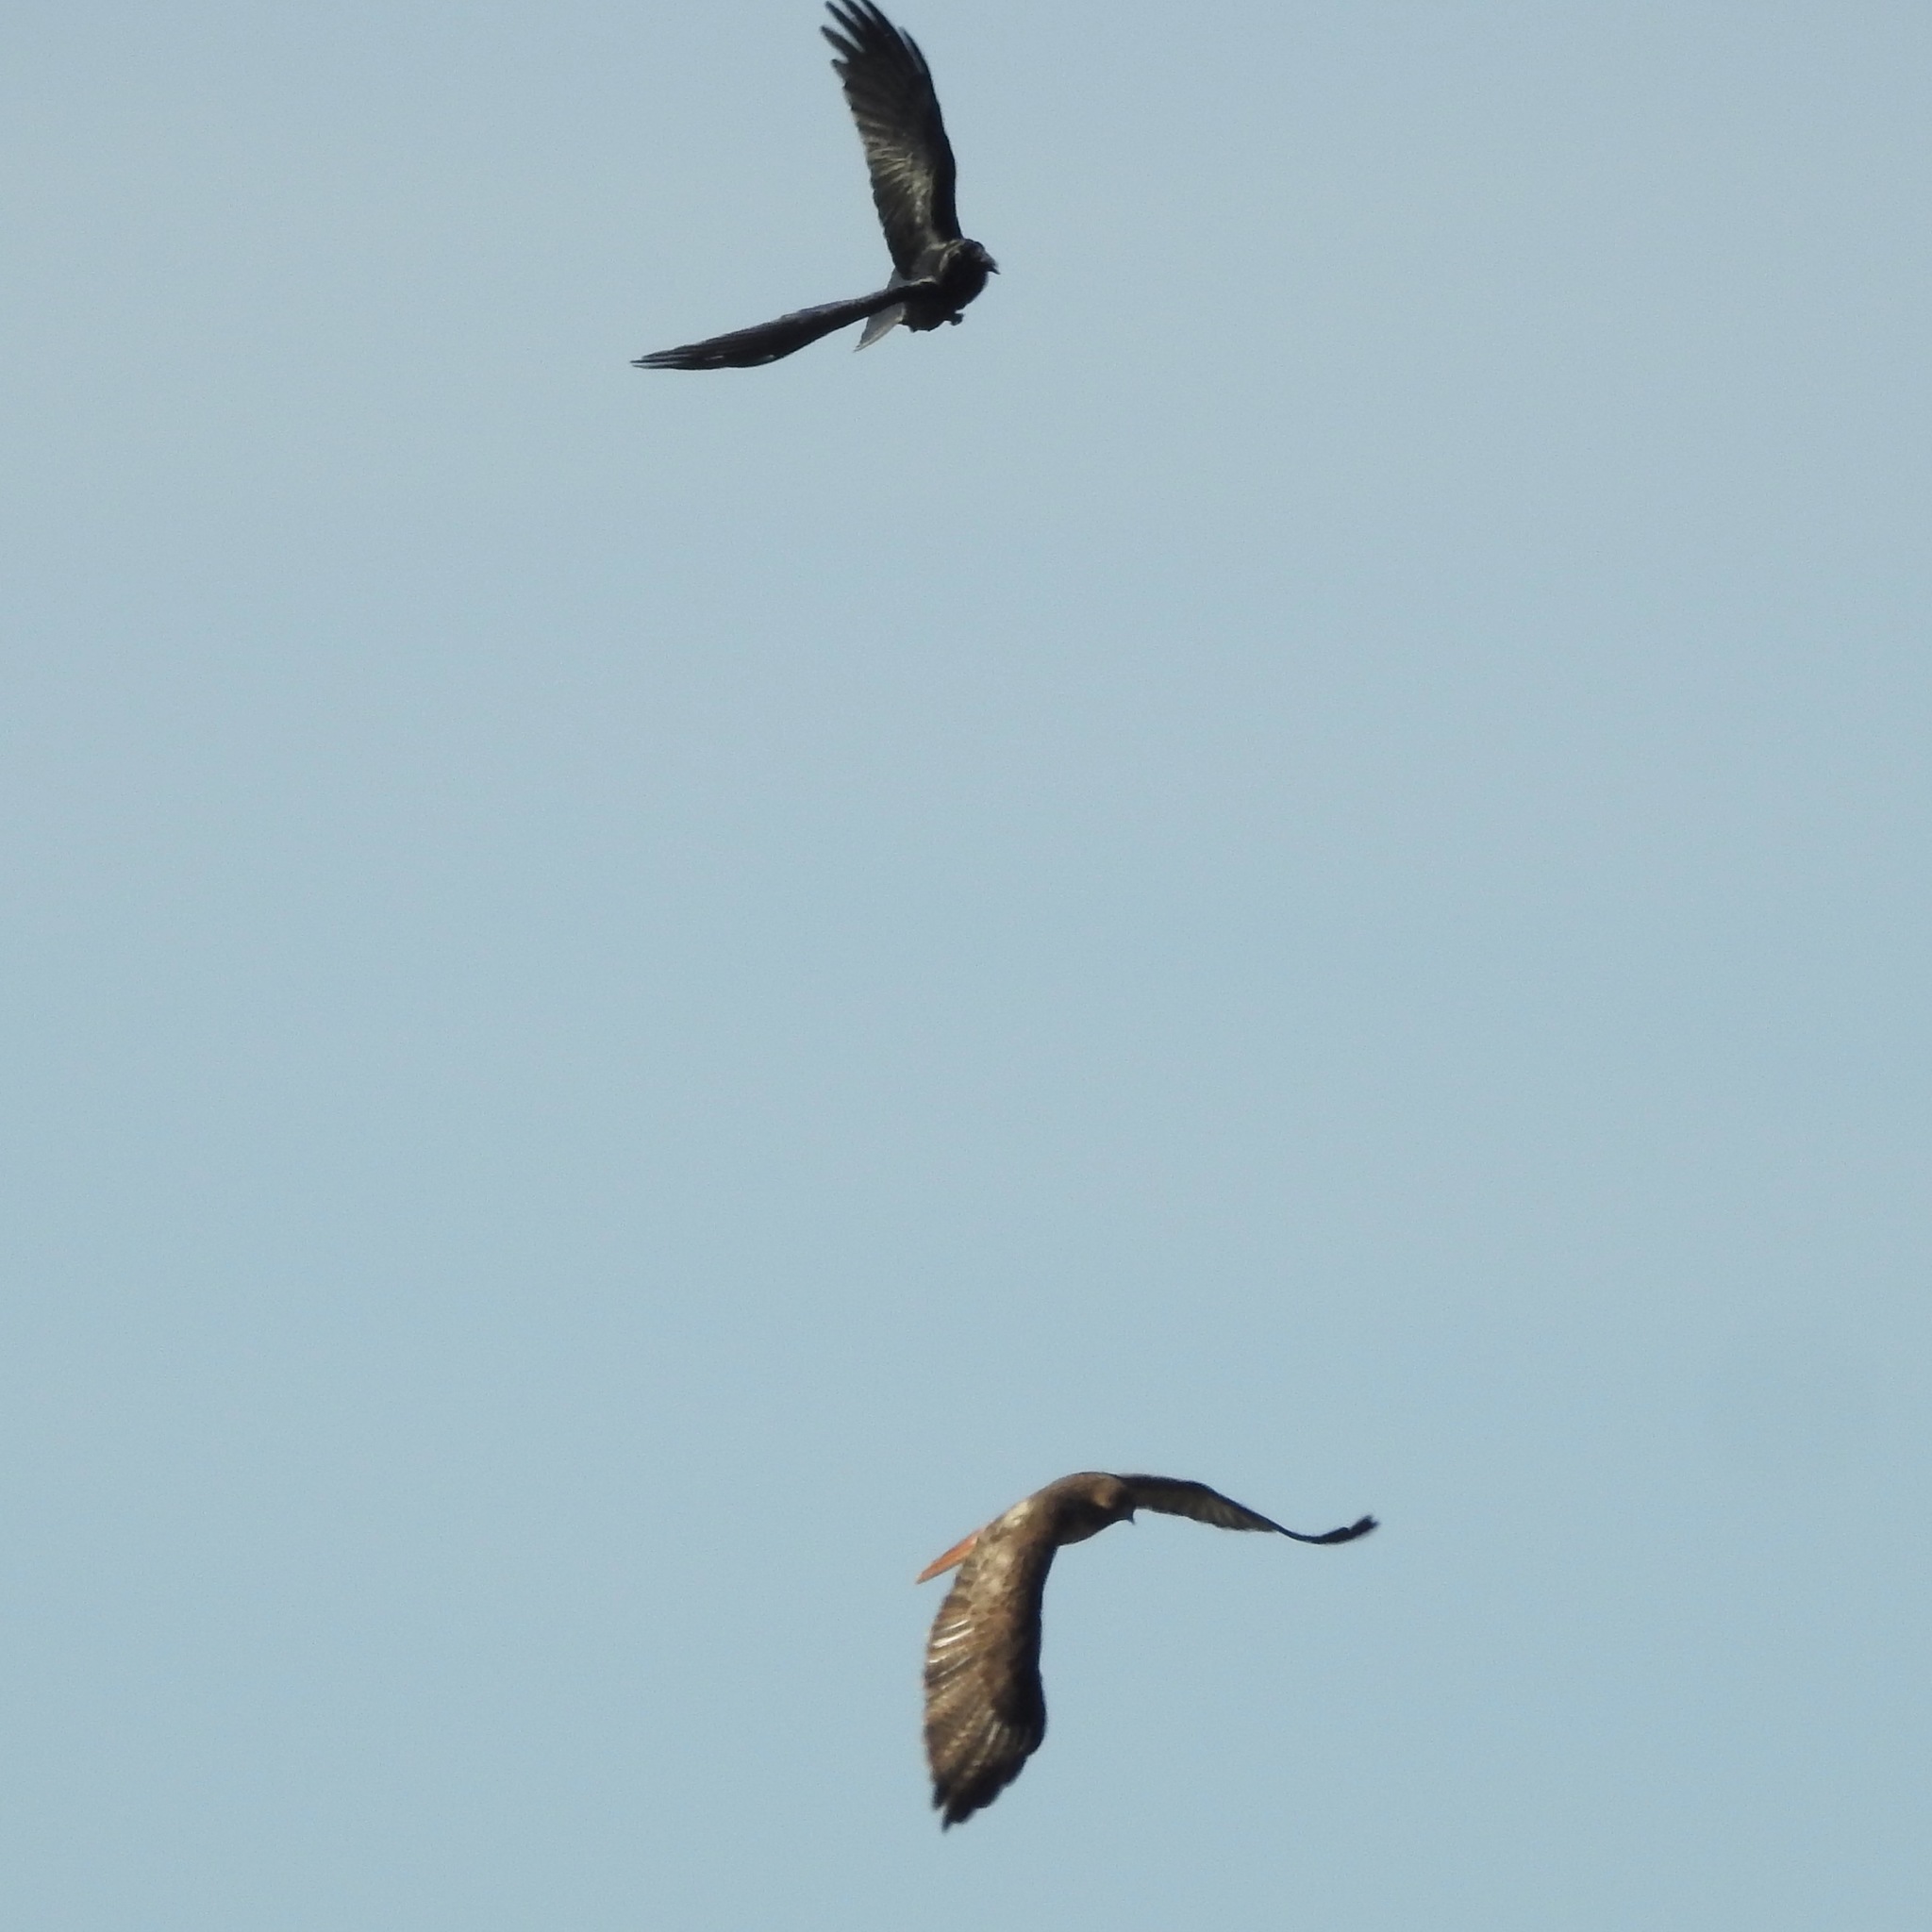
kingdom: Animalia
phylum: Chordata
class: Aves
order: Accipitriformes
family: Accipitridae
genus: Buteo
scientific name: Buteo jamaicensis
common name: Red-tailed hawk
